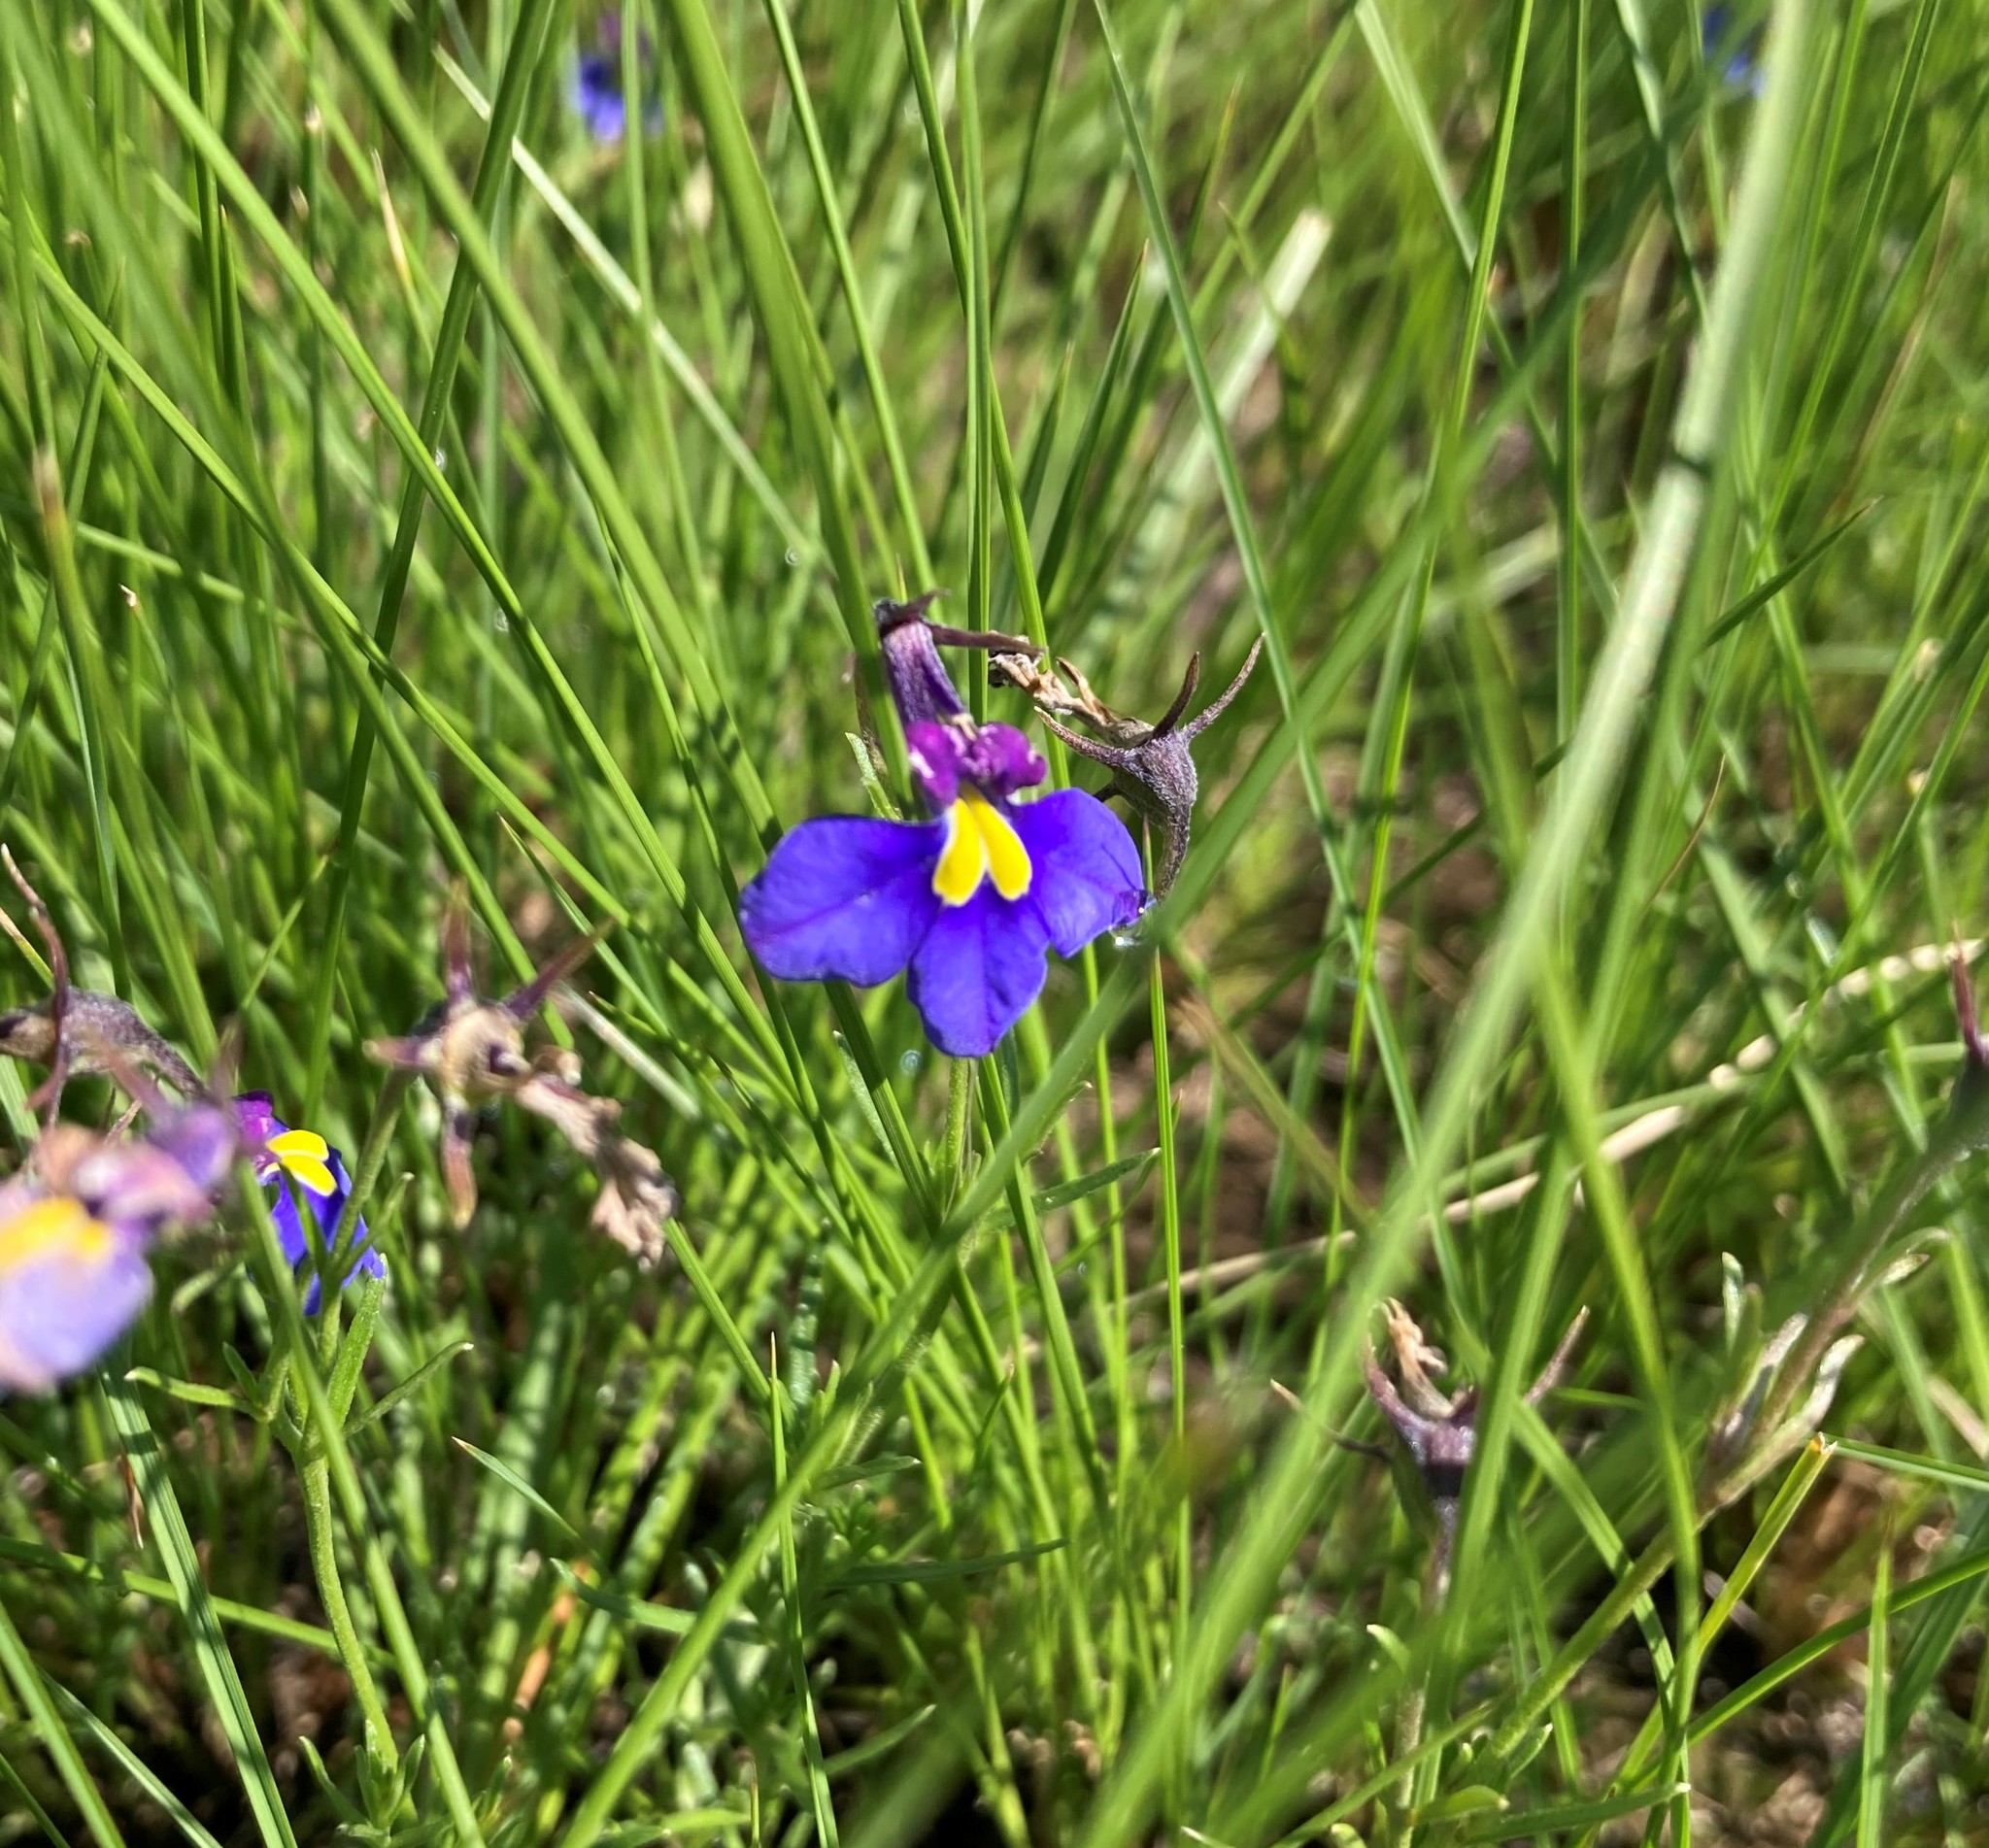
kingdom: Plantae
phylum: Tracheophyta
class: Magnoliopsida
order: Asterales
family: Campanulaceae
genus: Monopsis
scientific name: Monopsis decipiens
